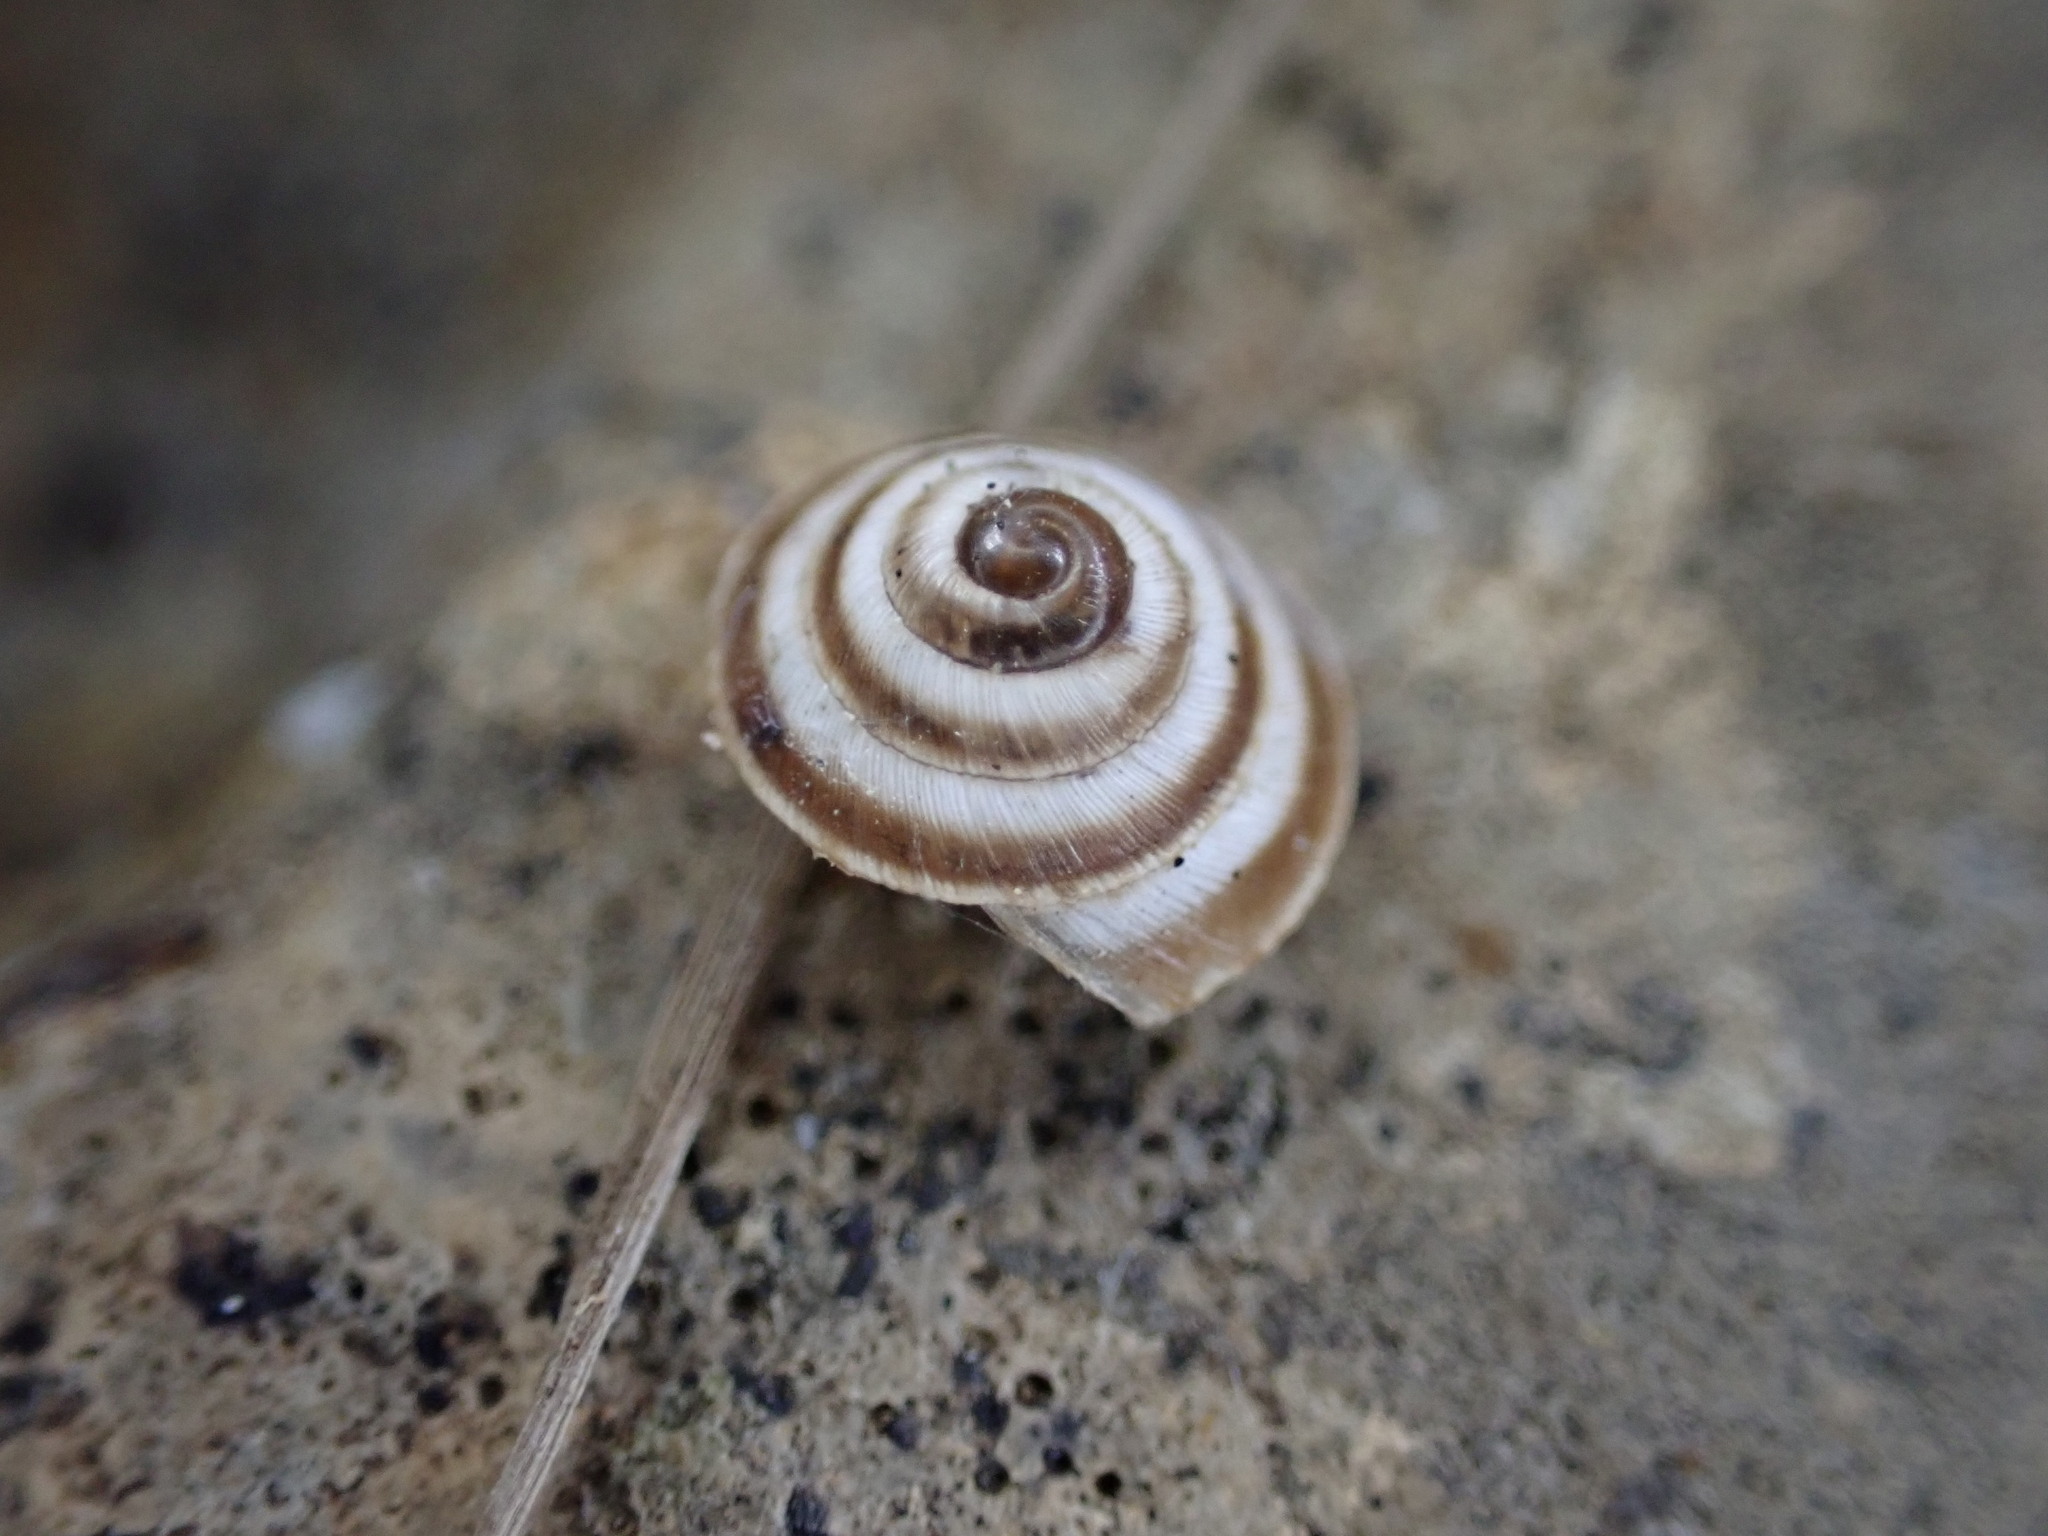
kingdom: Animalia
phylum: Mollusca
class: Gastropoda
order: Stylommatophora
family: Geomitridae
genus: Trochoidea
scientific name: Trochoidea elegans
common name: Elegant helicellid
